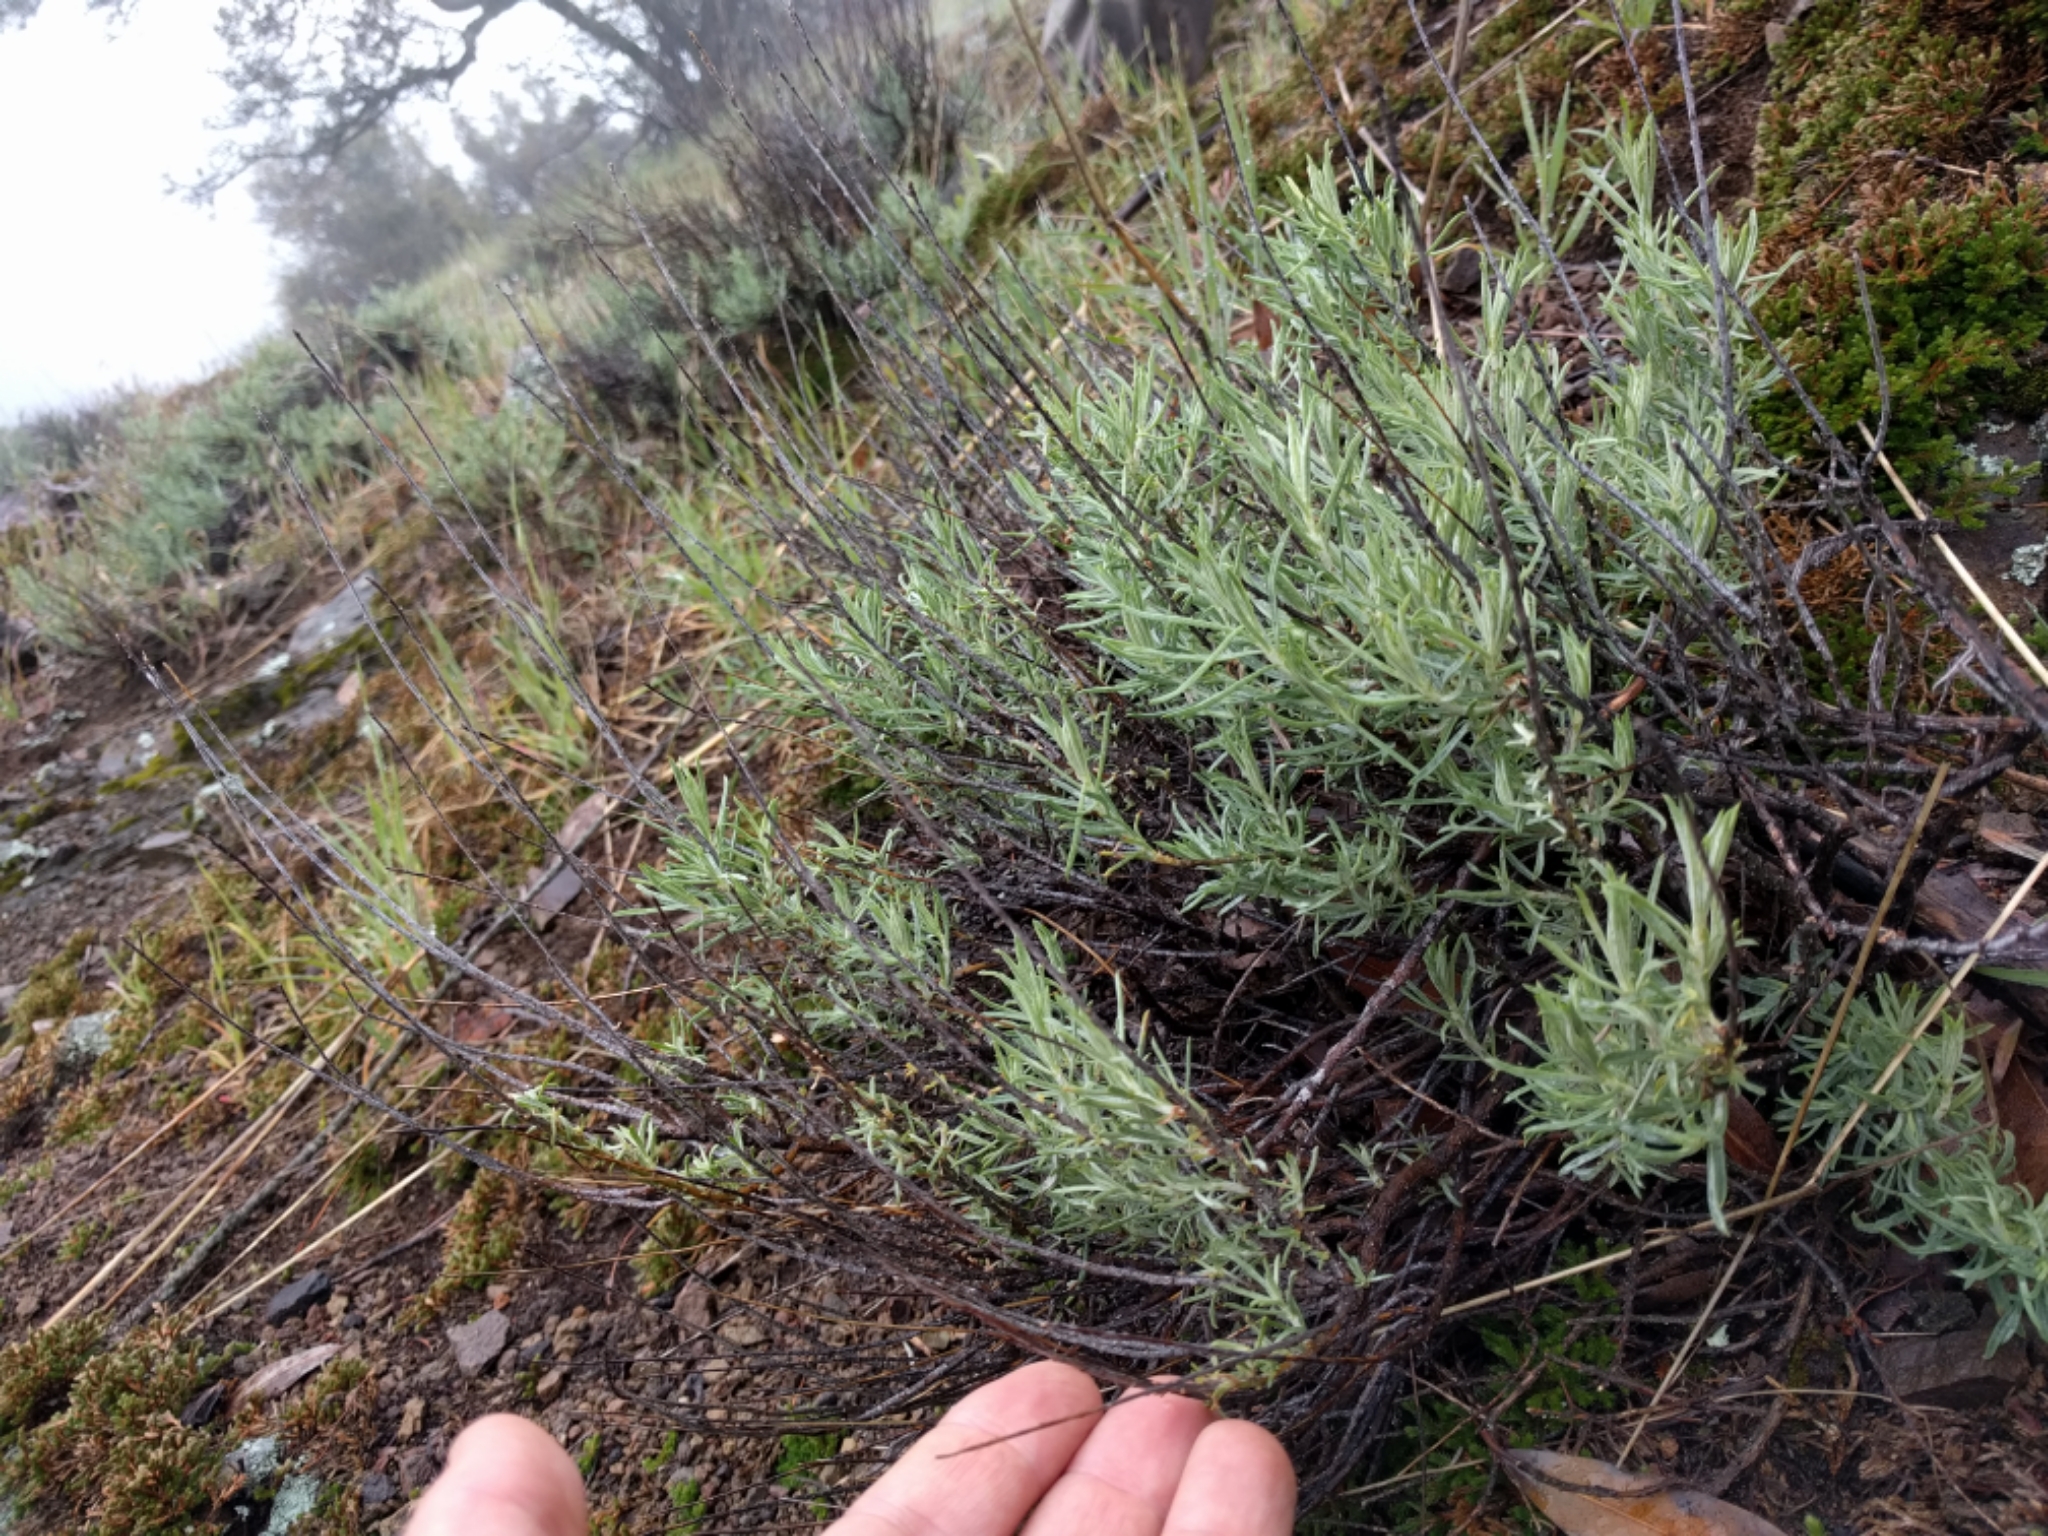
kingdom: Plantae
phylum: Tracheophyta
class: Magnoliopsida
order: Asterales
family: Asteraceae
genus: Ericameria
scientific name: Ericameria nauseosa
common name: Rubber rabbitbrush
